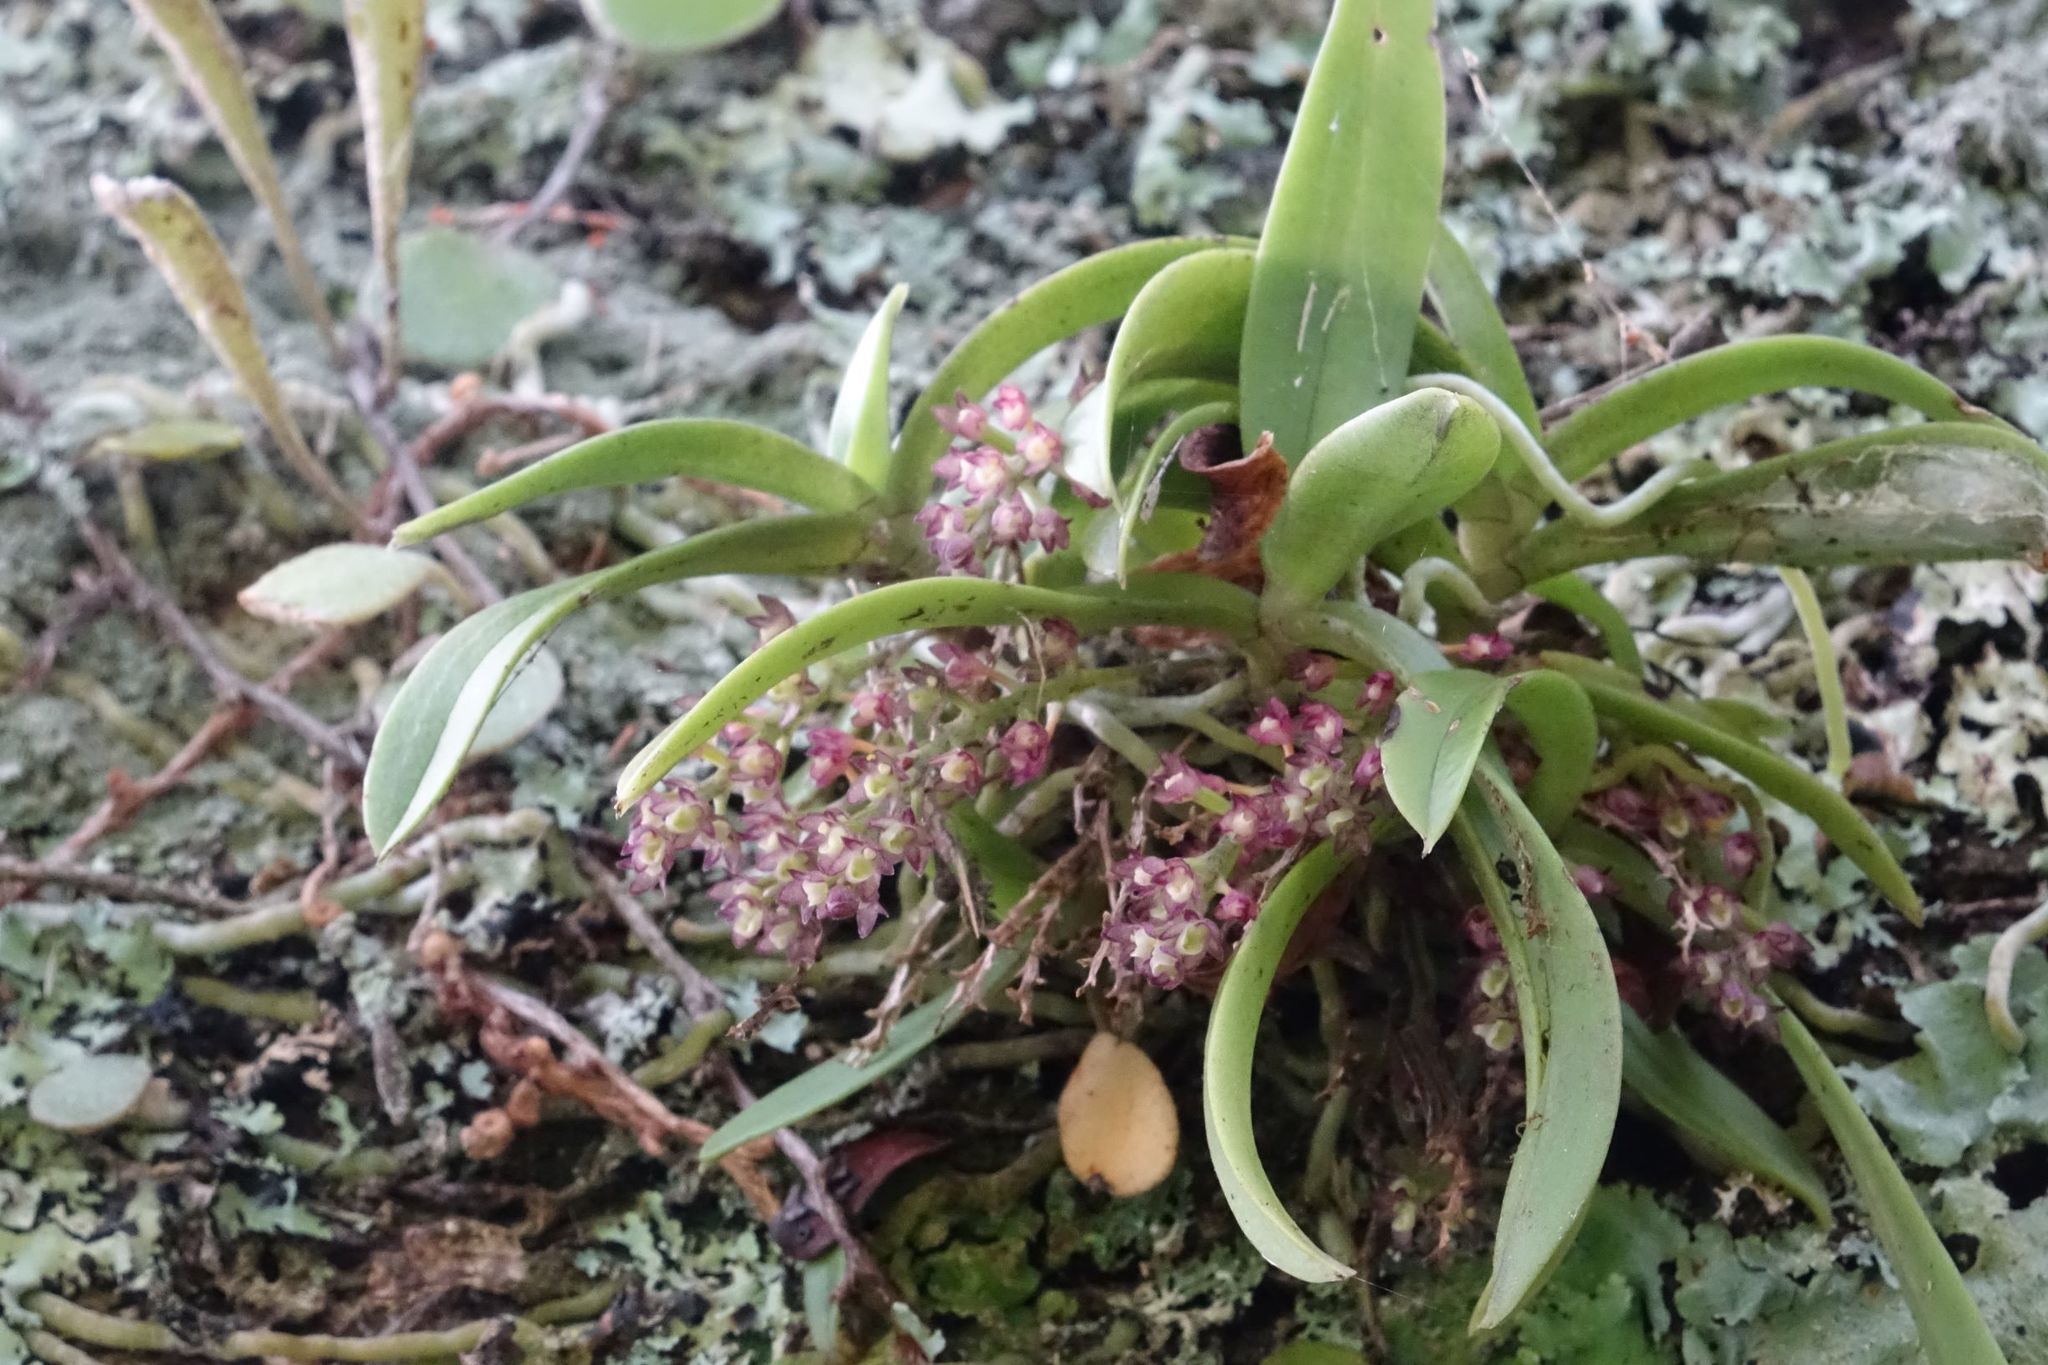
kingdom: Plantae
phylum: Tracheophyta
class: Liliopsida
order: Asparagales
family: Orchidaceae
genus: Drymoanthus
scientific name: Drymoanthus adversus
